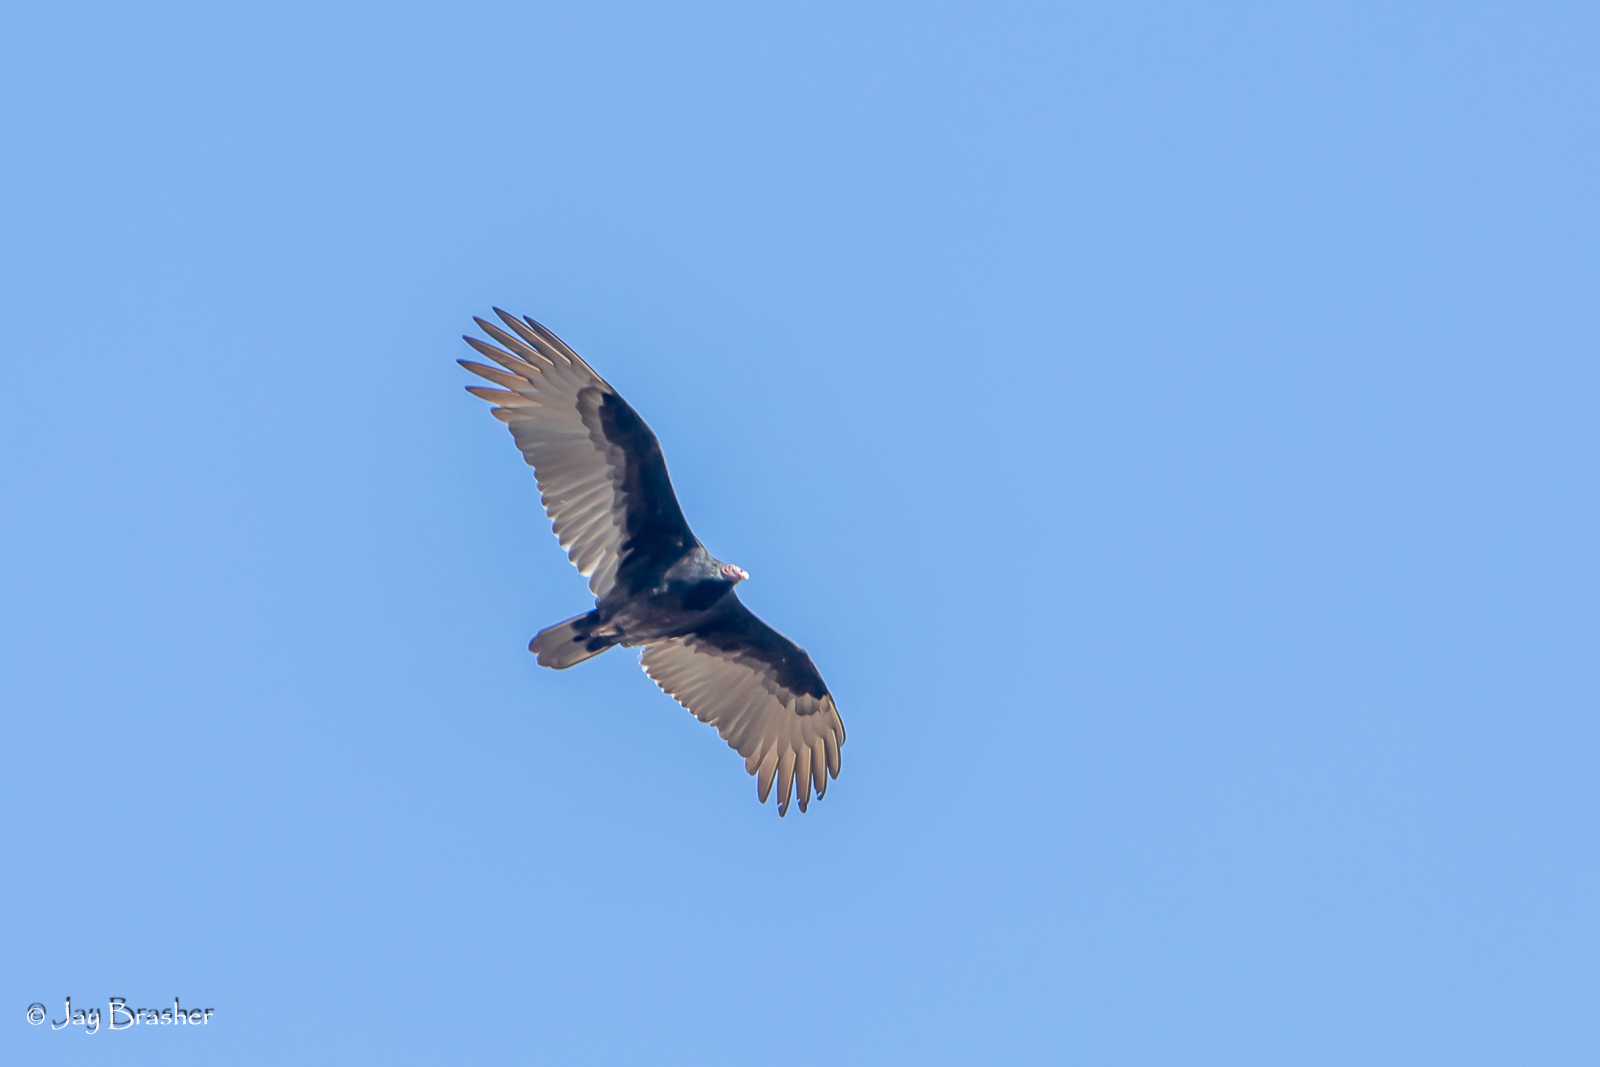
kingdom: Animalia
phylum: Chordata
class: Aves
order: Accipitriformes
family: Cathartidae
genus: Cathartes
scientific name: Cathartes aura
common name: Turkey vulture
